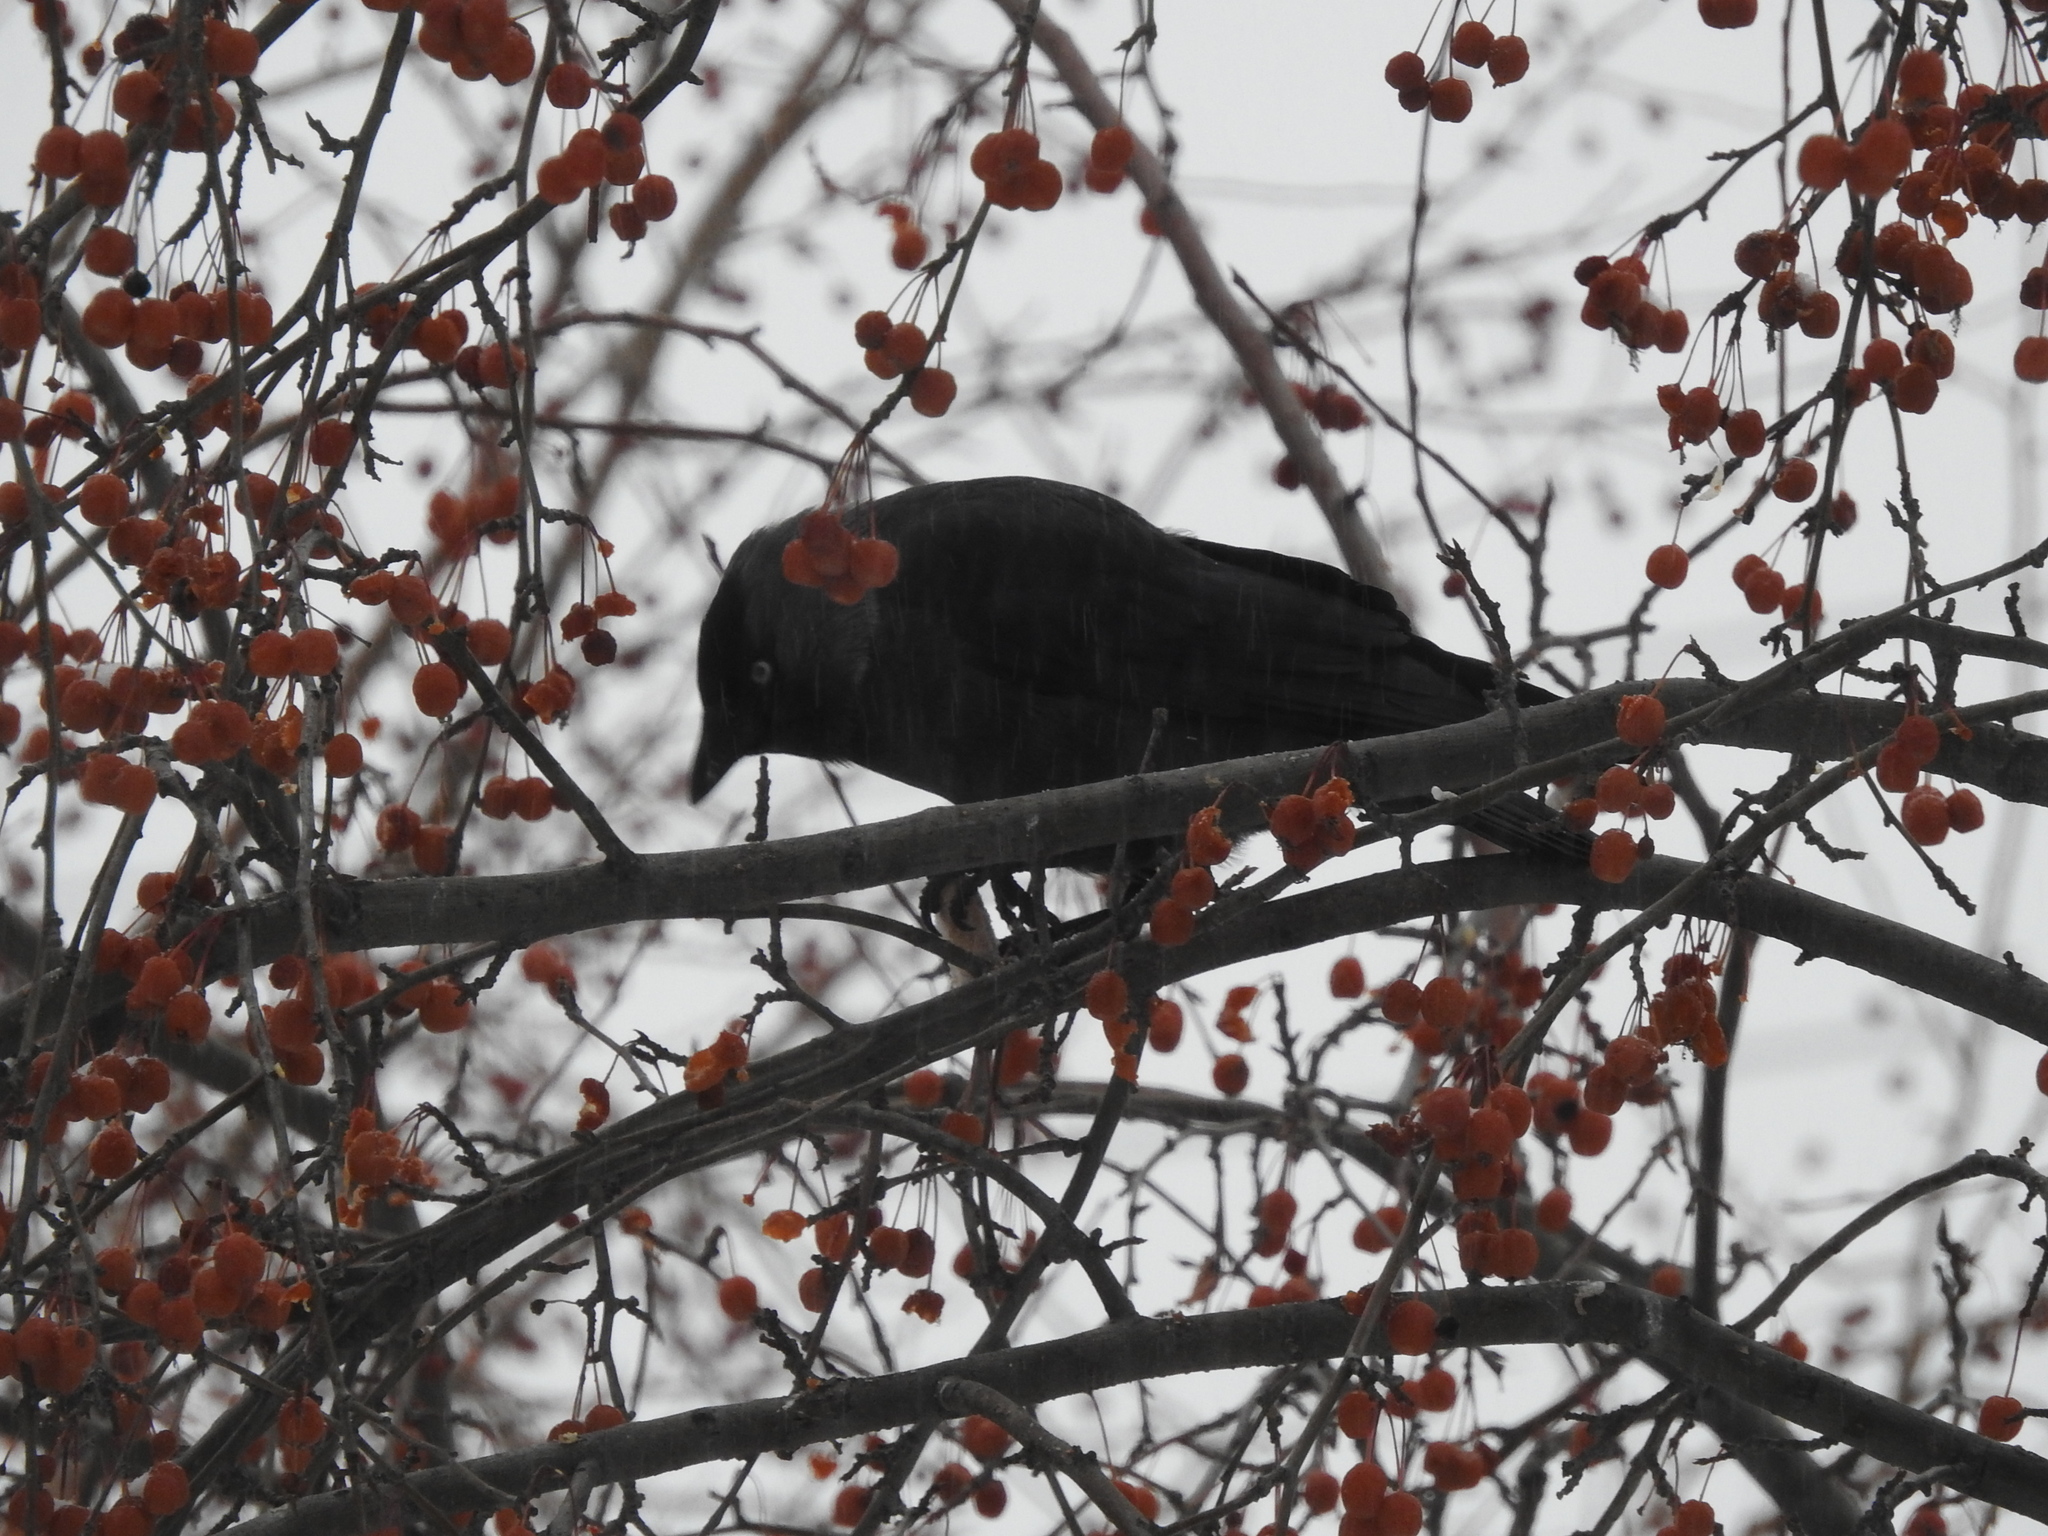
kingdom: Animalia
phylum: Chordata
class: Aves
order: Passeriformes
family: Corvidae
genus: Coloeus
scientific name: Coloeus monedula
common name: Western jackdaw
